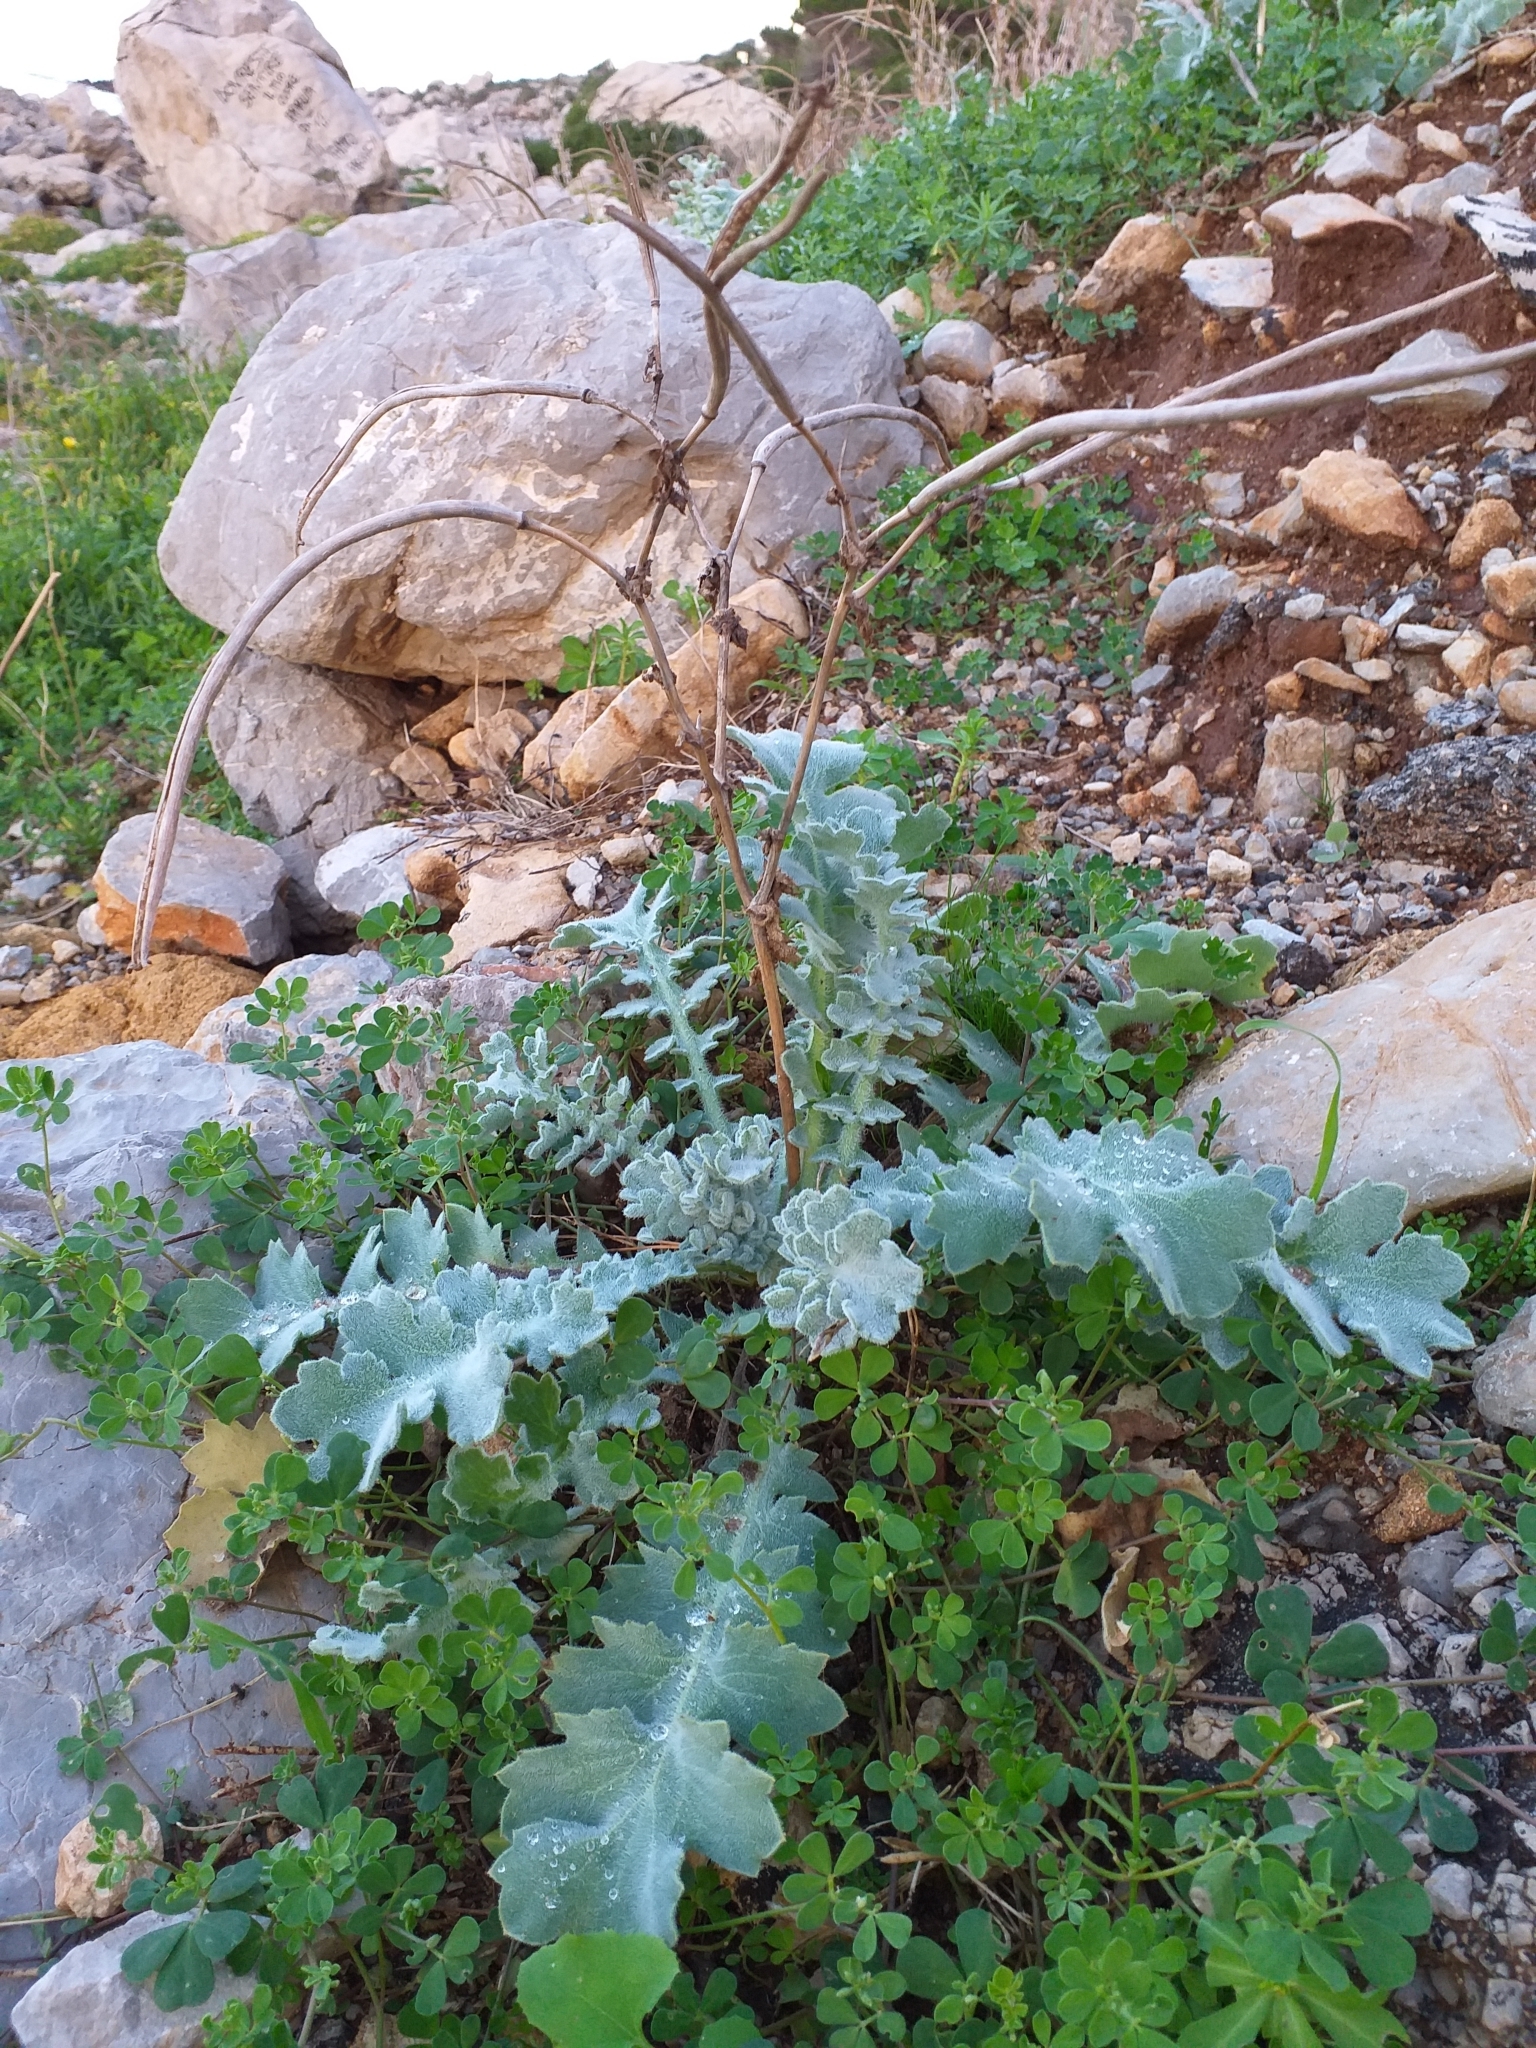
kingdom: Plantae
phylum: Tracheophyta
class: Magnoliopsida
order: Ranunculales
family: Papaveraceae
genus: Glaucium
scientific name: Glaucium flavum
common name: Yellow horned-poppy
